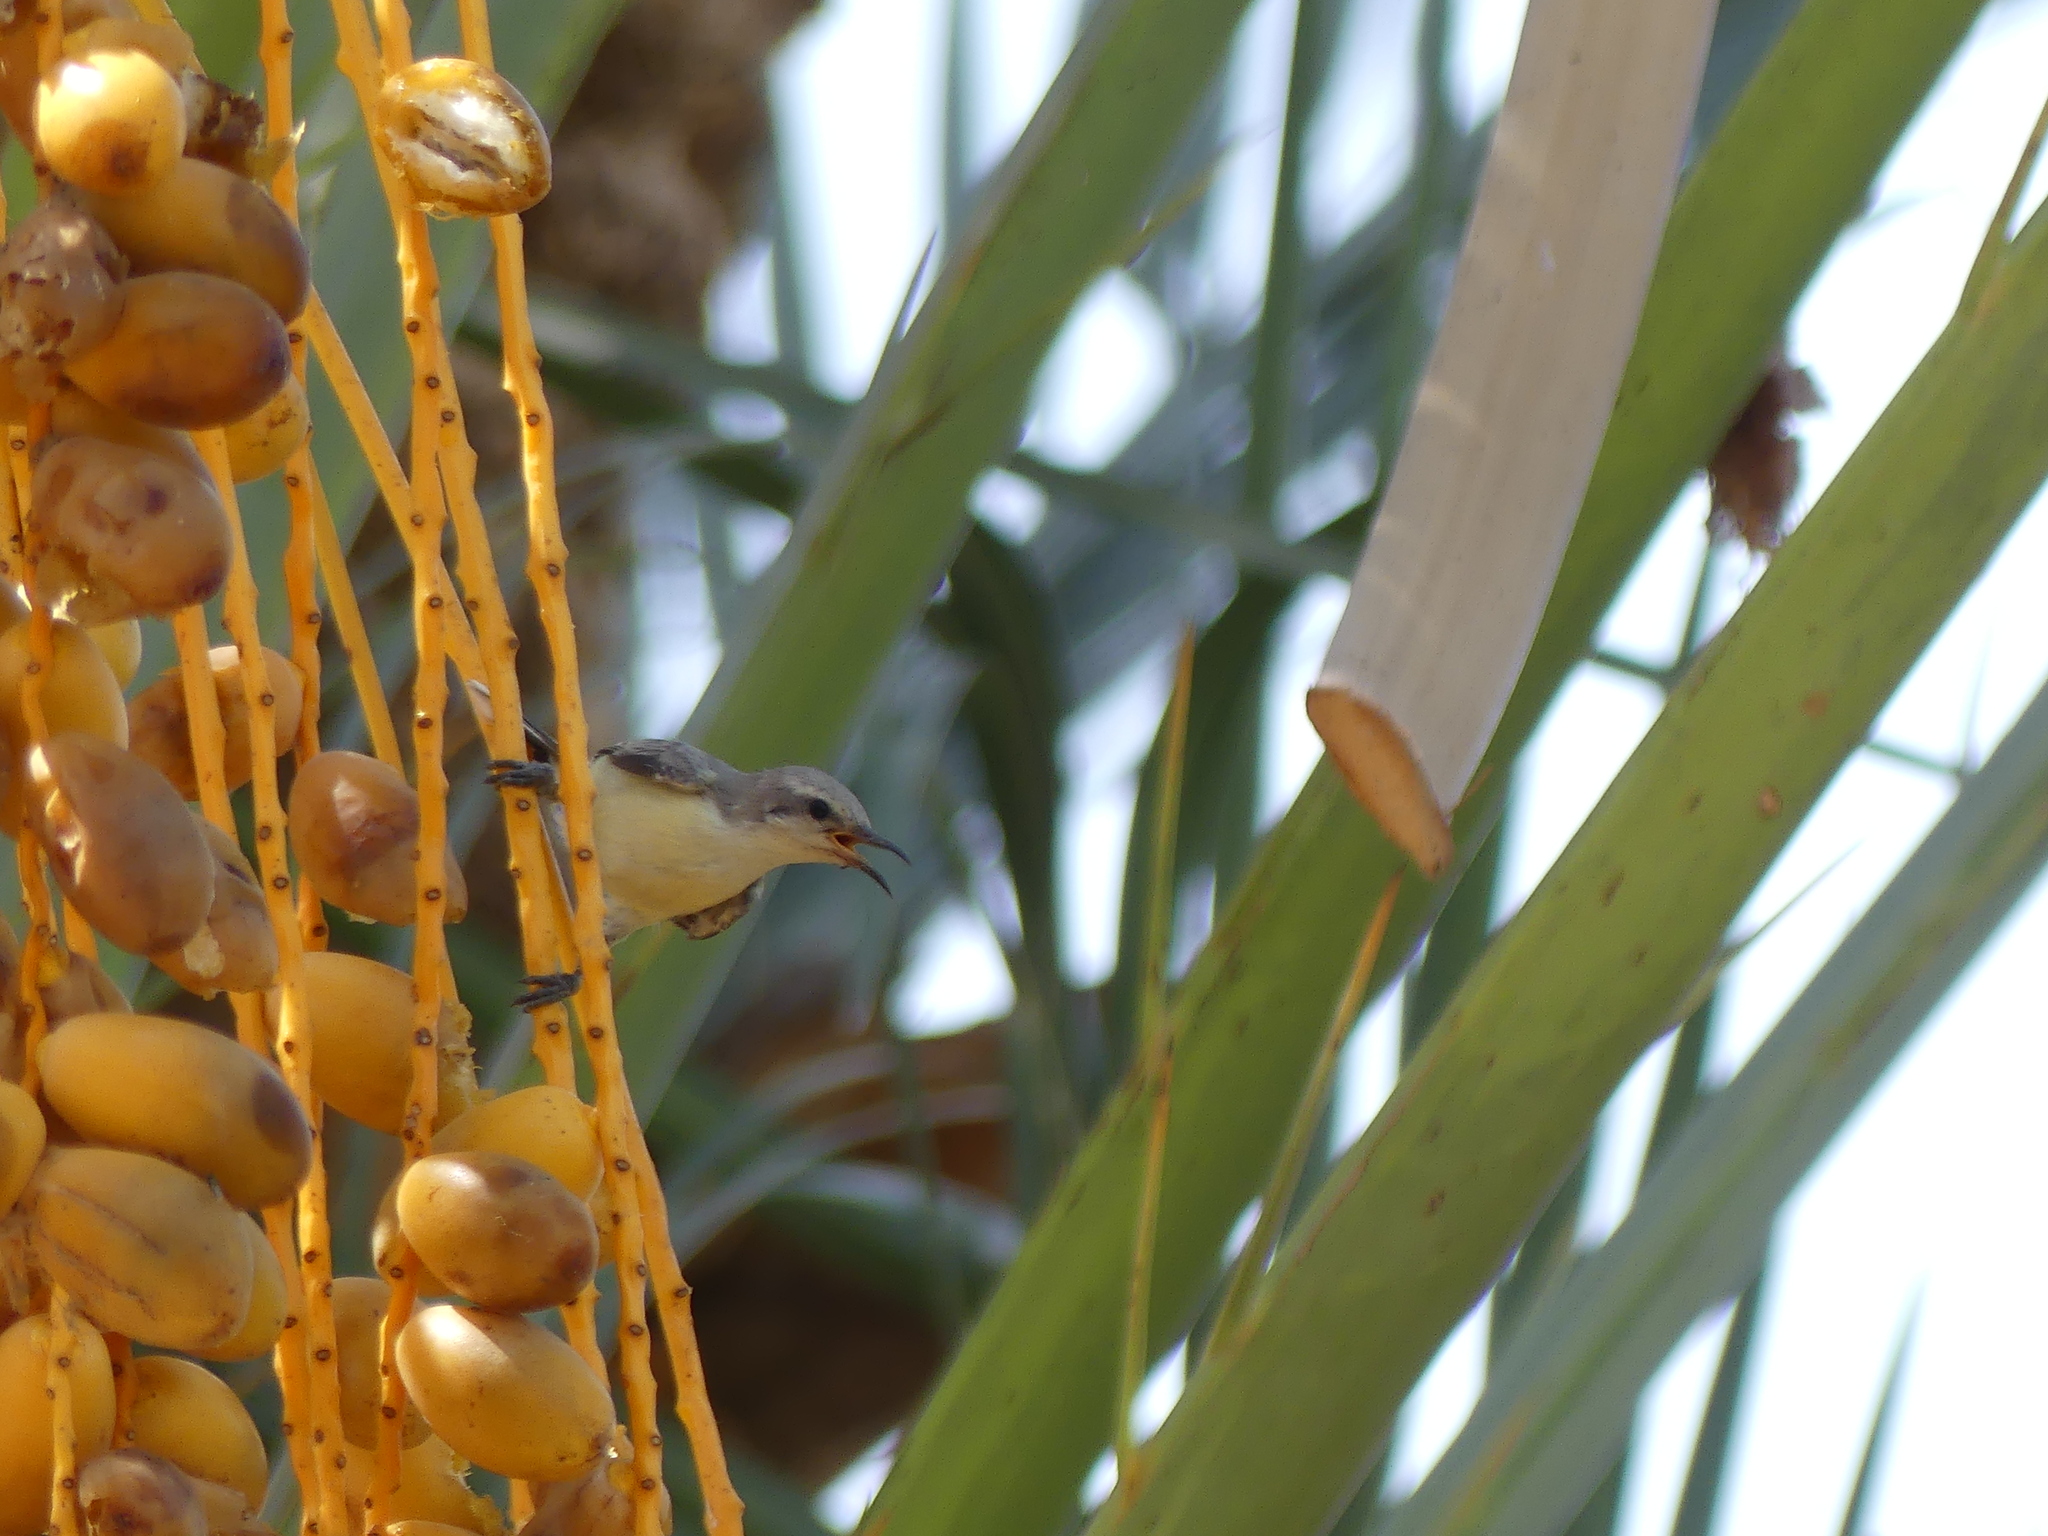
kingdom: Animalia
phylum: Chordata
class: Aves
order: Passeriformes
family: Nectariniidae
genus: Hedydipna
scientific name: Hedydipna metallica
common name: Nile valley sunbird
